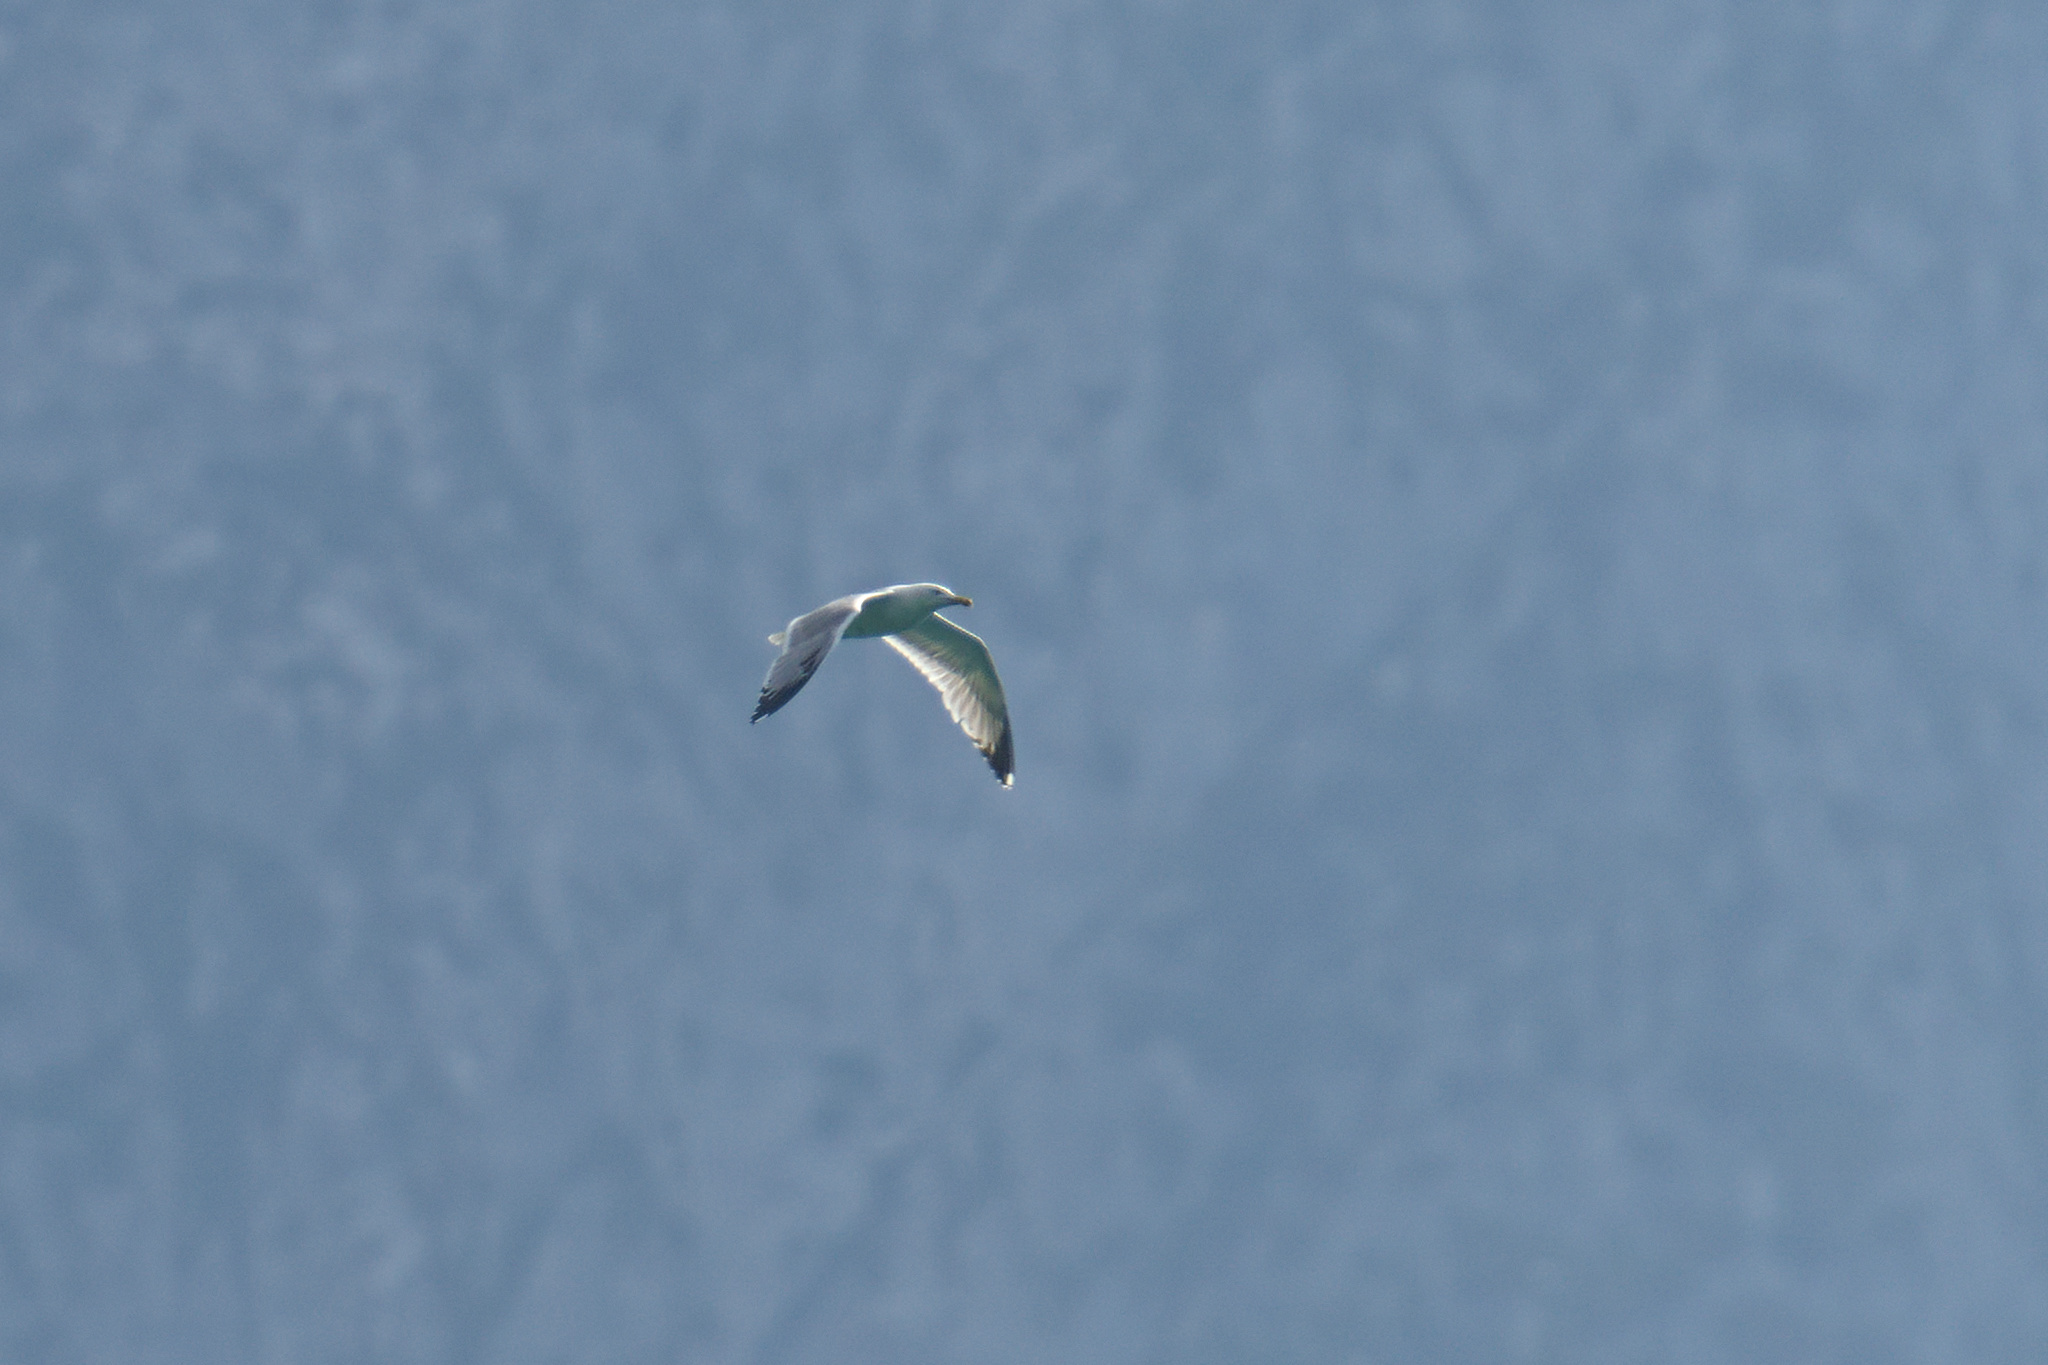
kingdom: Animalia
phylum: Chordata
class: Aves
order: Charadriiformes
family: Laridae
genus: Larus
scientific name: Larus michahellis
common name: Yellow-legged gull
